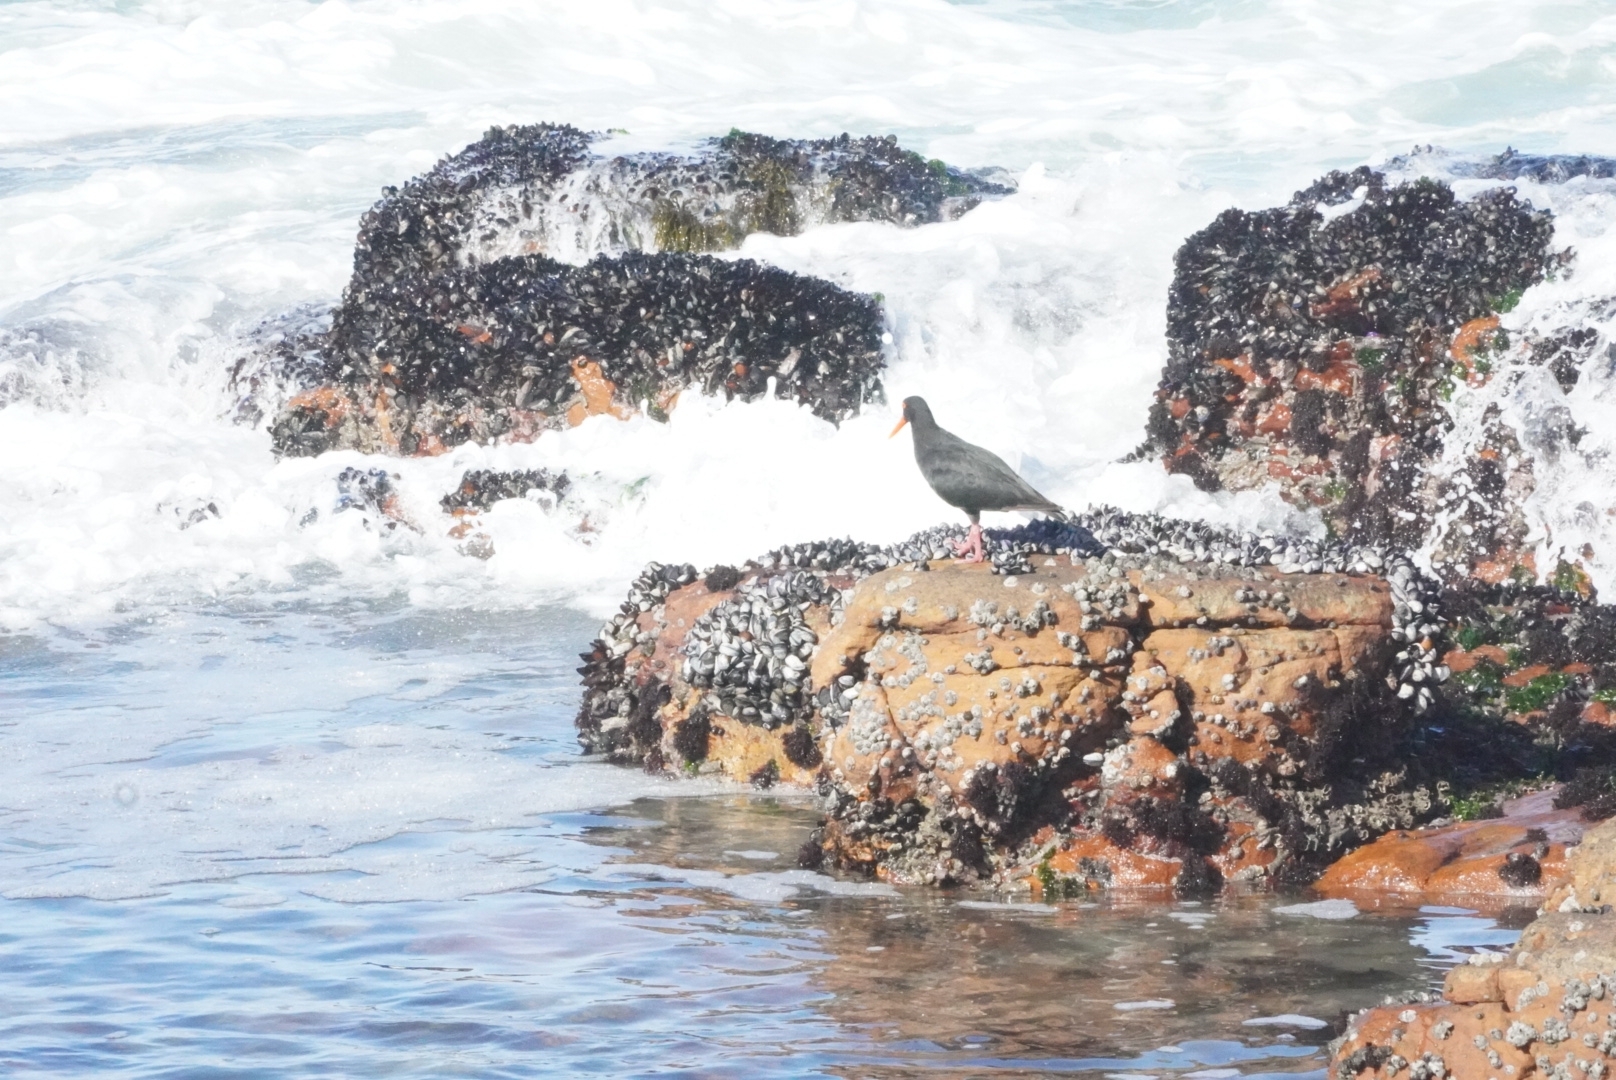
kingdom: Animalia
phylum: Chordata
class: Aves
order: Charadriiformes
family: Haematopodidae
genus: Haematopus
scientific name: Haematopus moquini
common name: African oystercatcher
